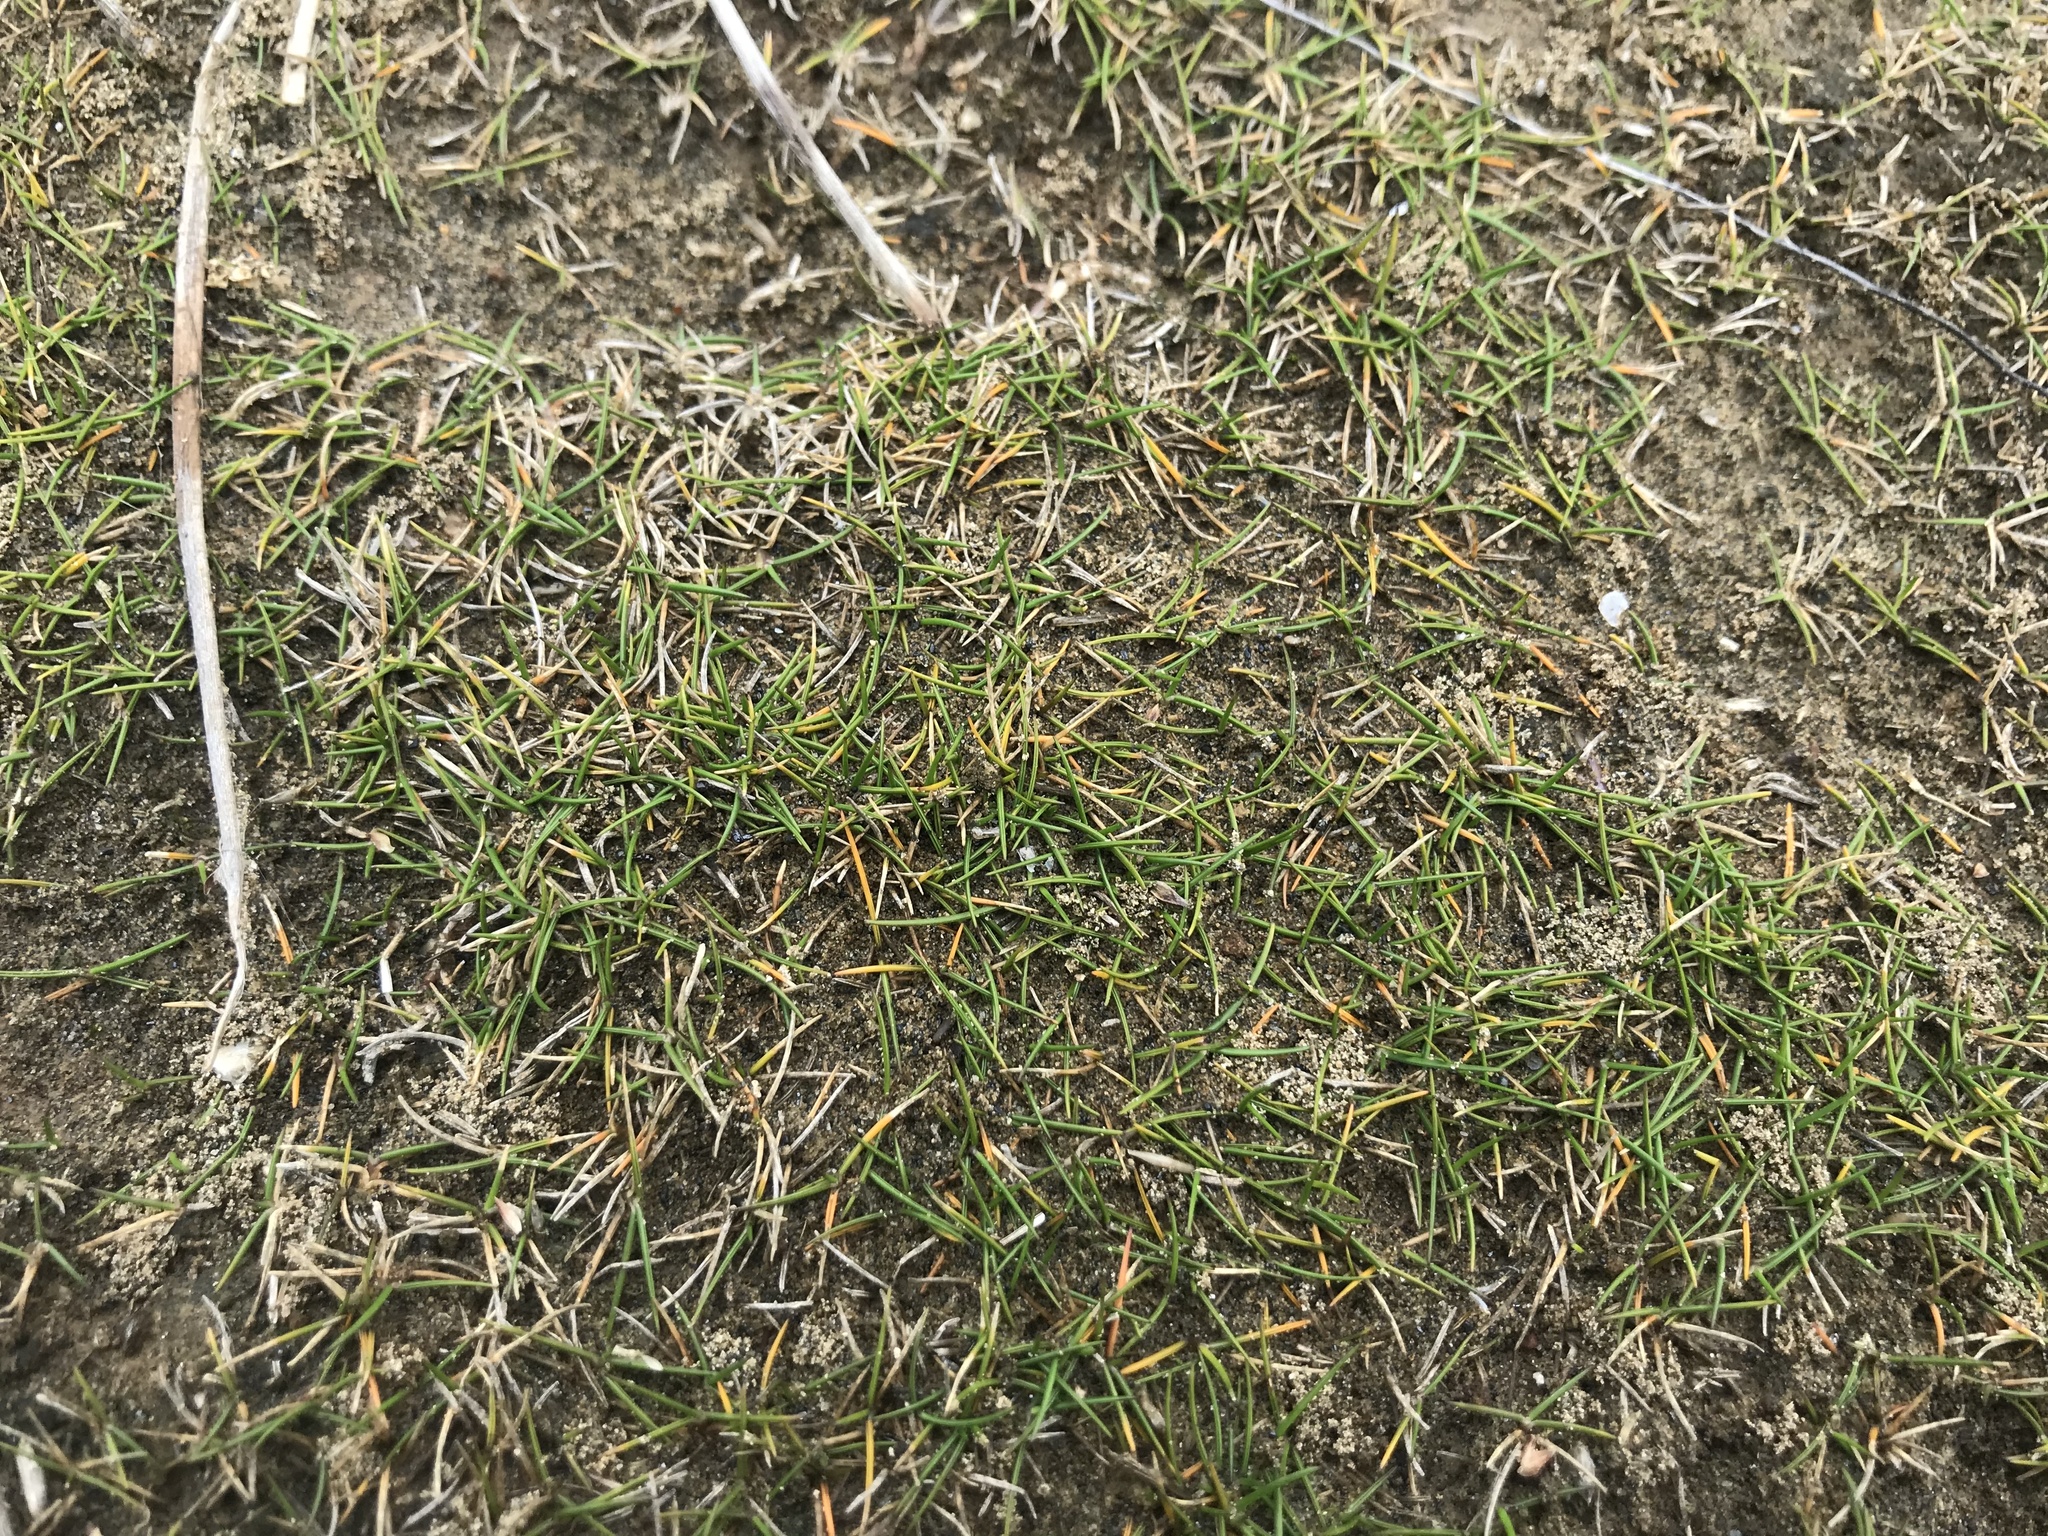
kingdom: Plantae
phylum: Tracheophyta
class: Liliopsida
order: Poales
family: Poaceae
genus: Zoysia
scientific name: Zoysia minima
